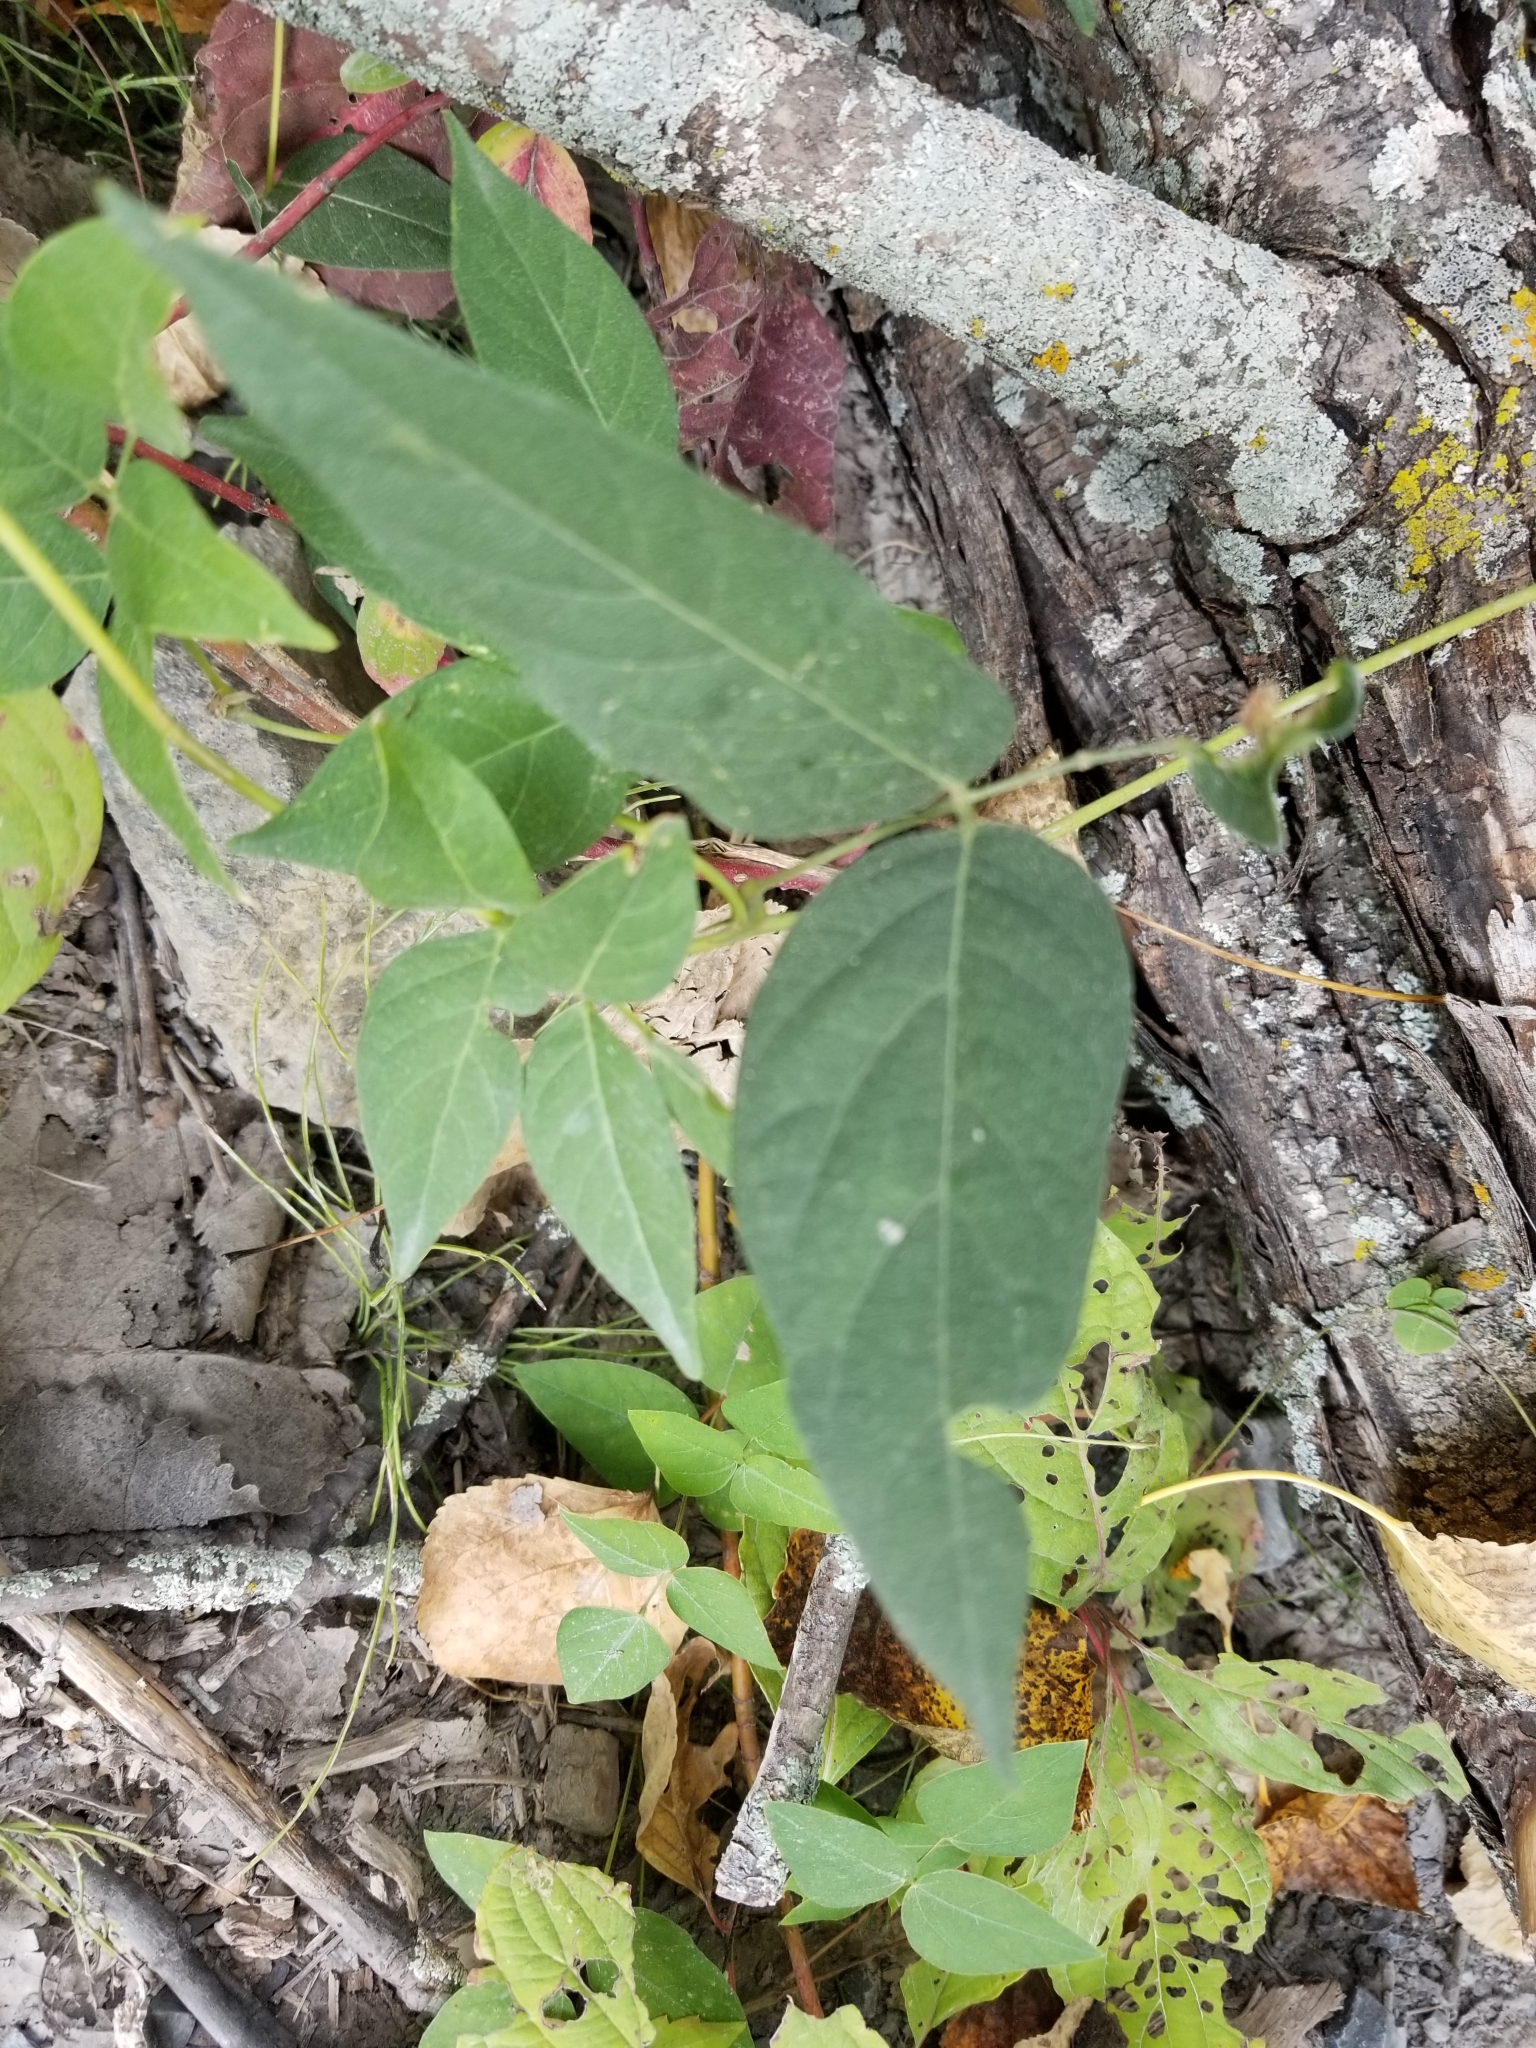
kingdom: Plantae
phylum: Tracheophyta
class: Magnoliopsida
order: Fabales
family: Fabaceae
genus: Apios
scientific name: Apios americana
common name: American potato-bean
